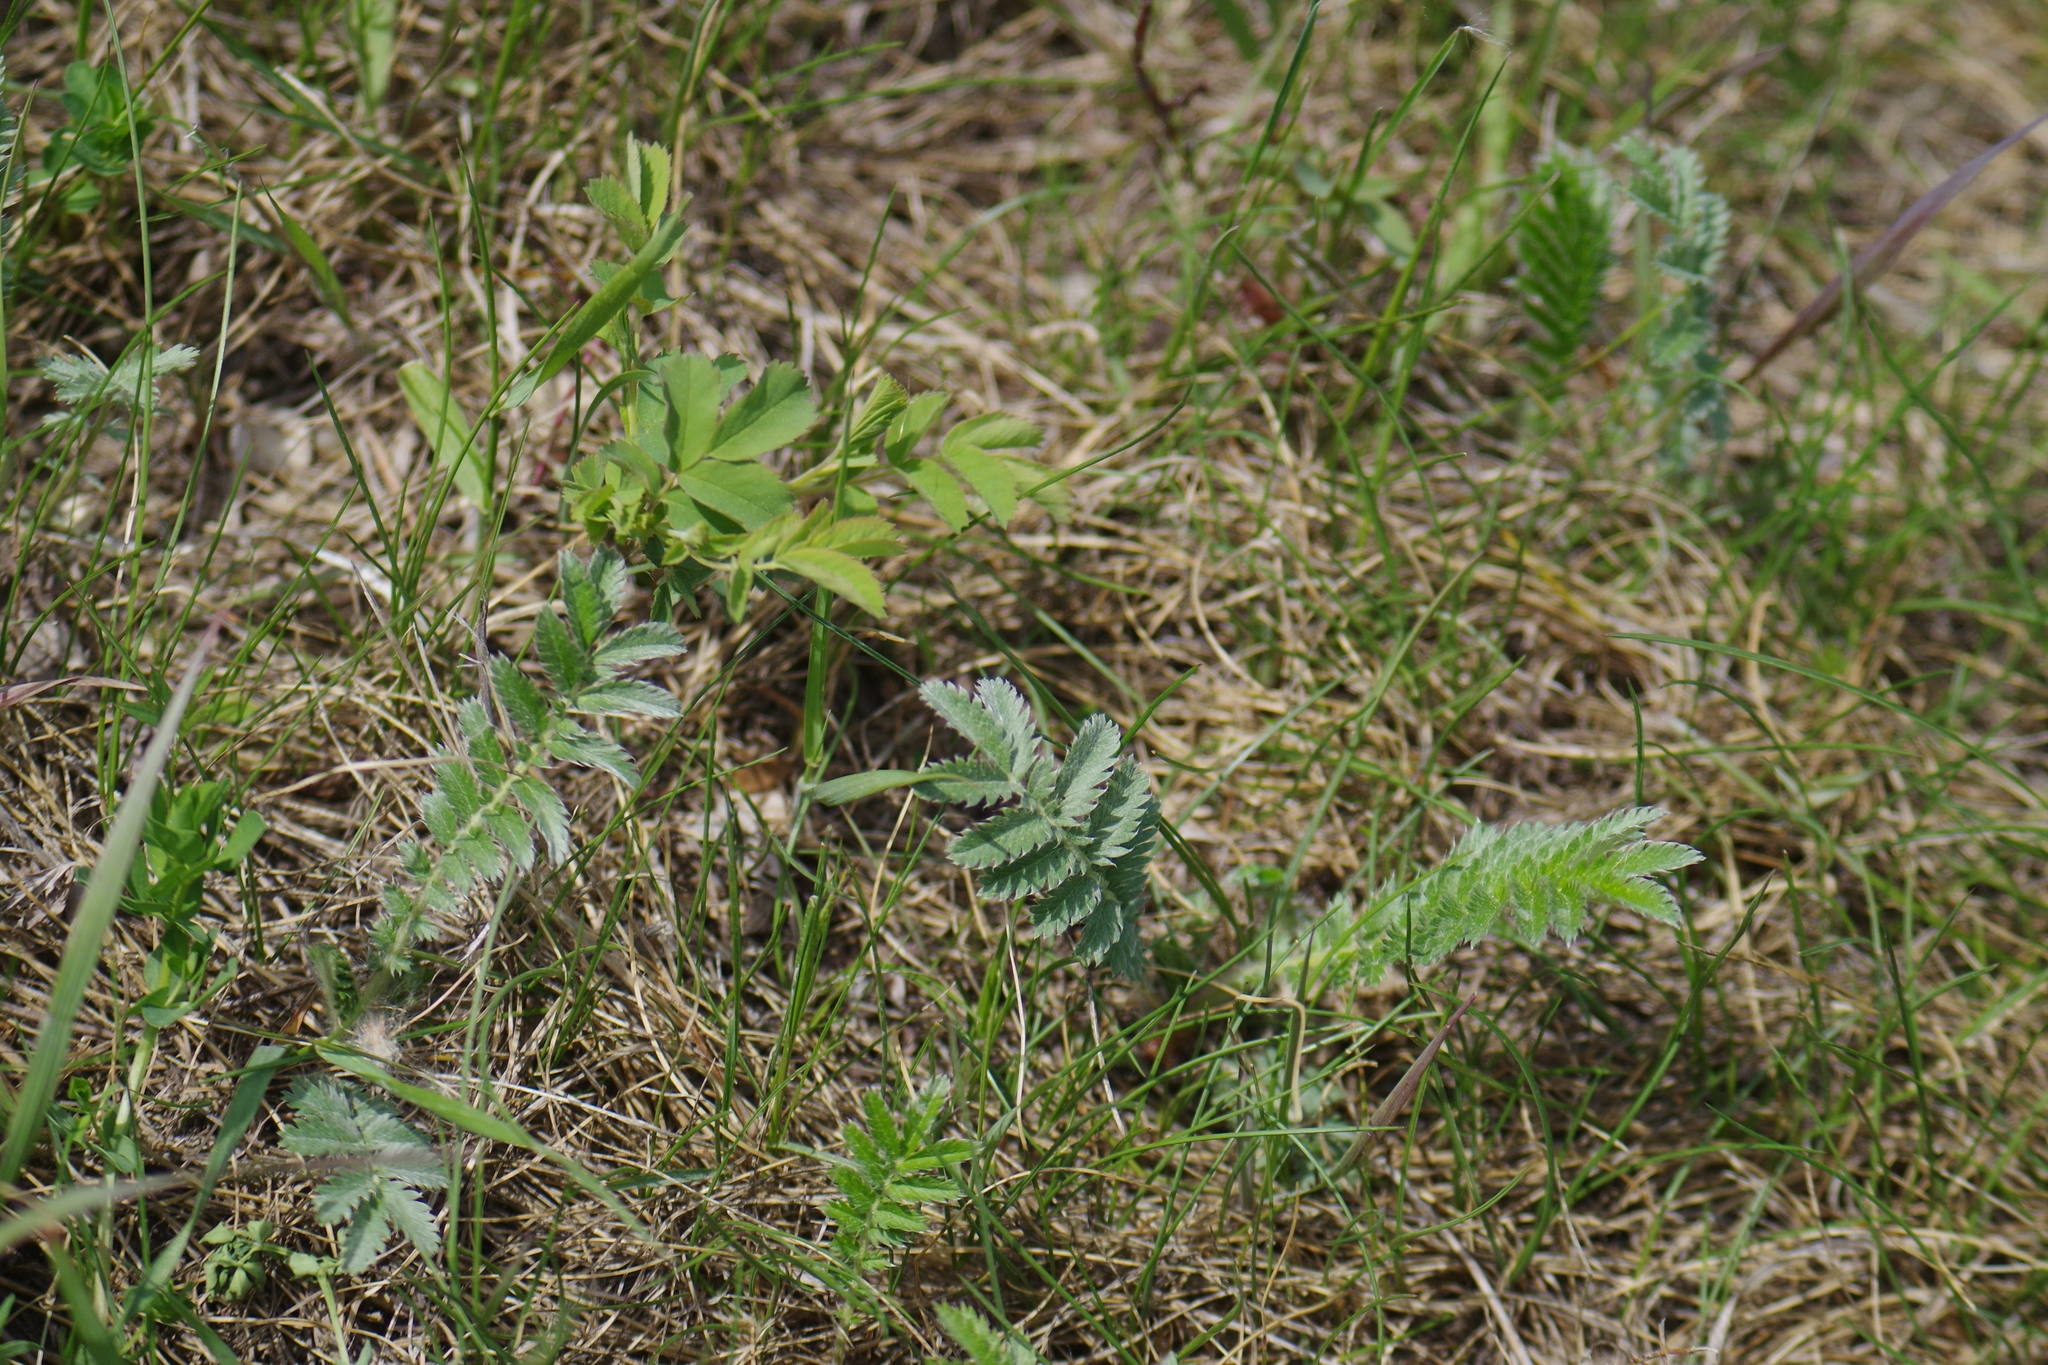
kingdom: Plantae
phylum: Tracheophyta
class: Magnoliopsida
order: Rosales
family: Rosaceae
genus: Argentina
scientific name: Argentina anserina
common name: Common silverweed
